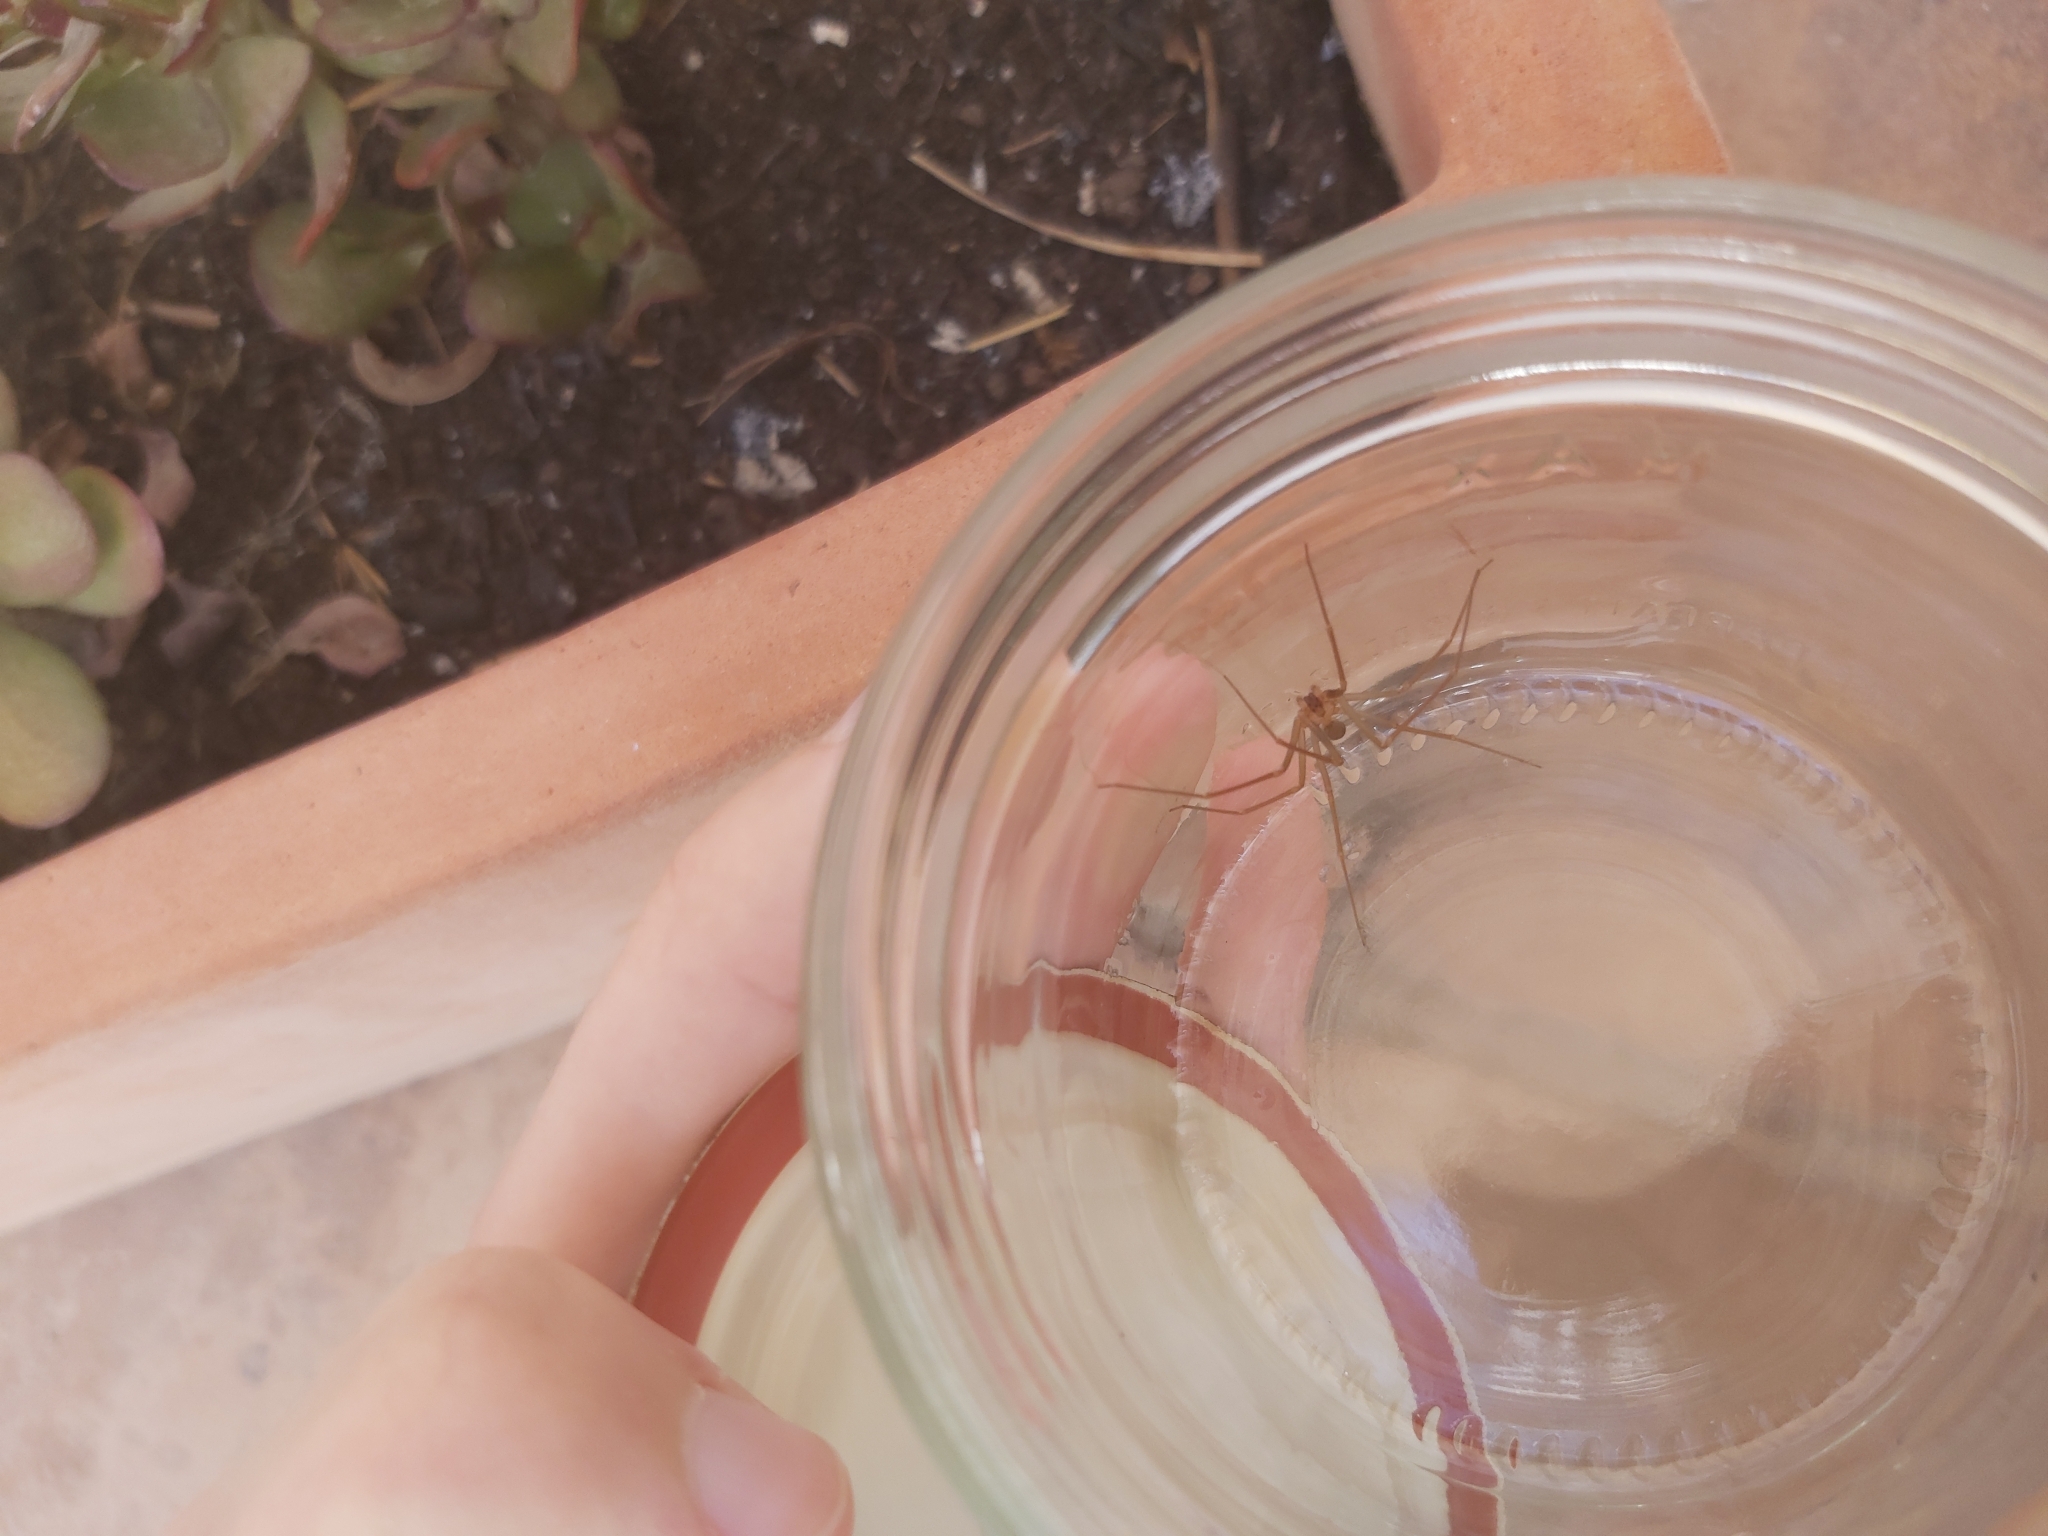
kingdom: Animalia
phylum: Arthropoda
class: Arachnida
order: Araneae
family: Sicariidae
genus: Loxosceles
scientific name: Loxosceles rufescens
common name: Mediterranean recluse spider
